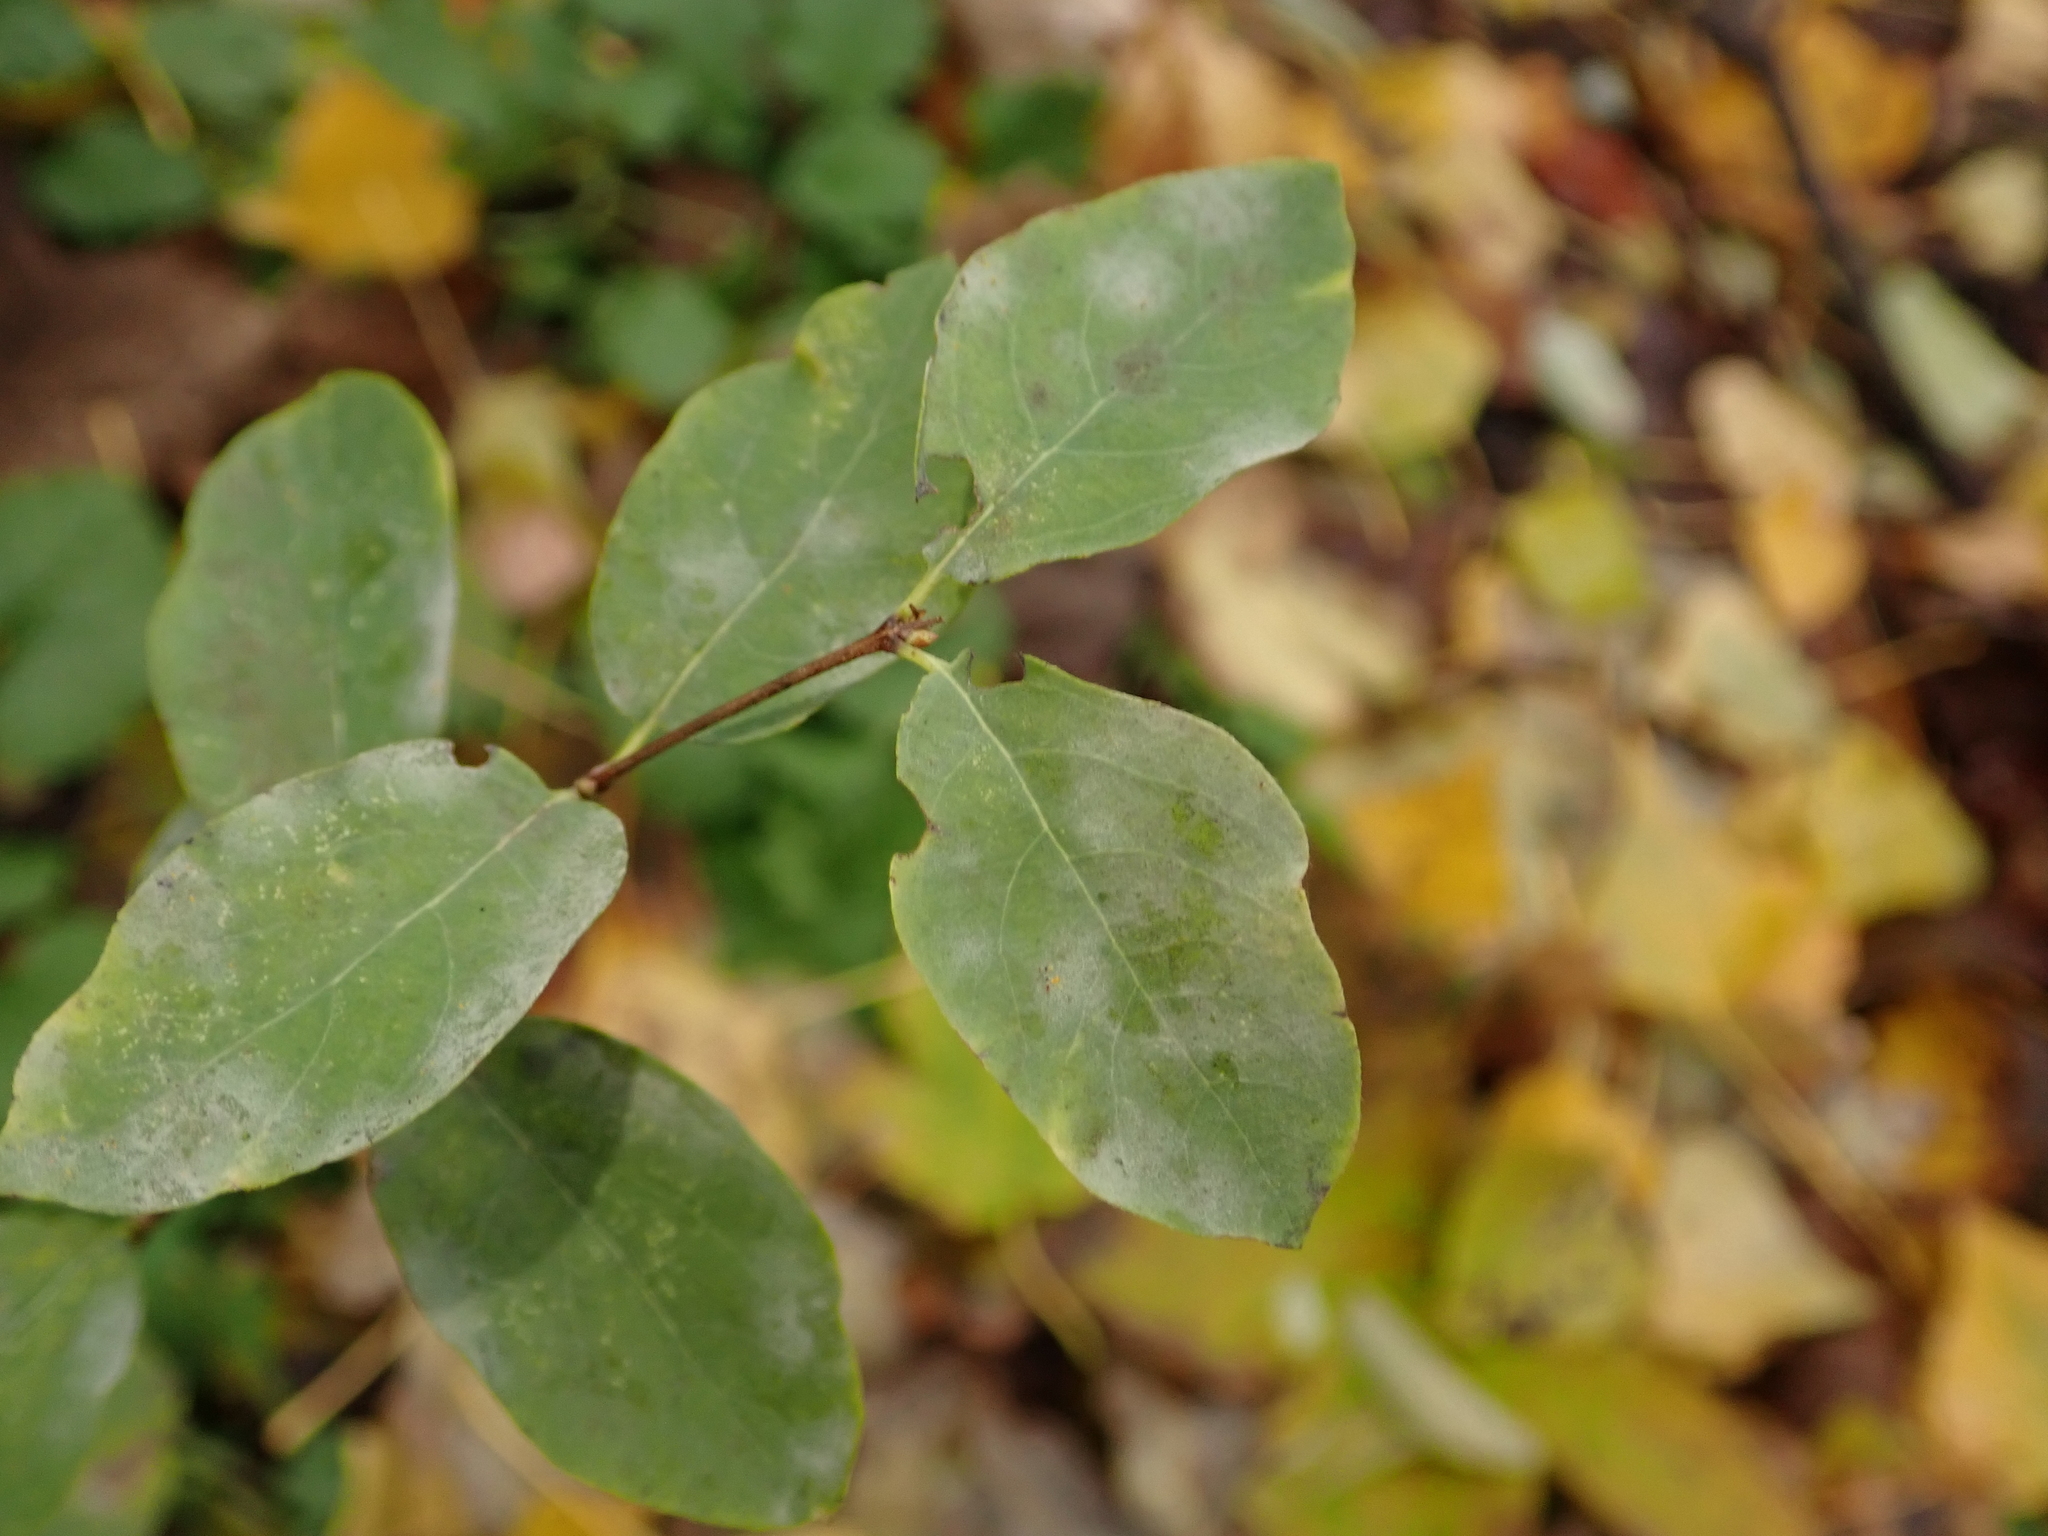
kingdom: Plantae
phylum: Tracheophyta
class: Magnoliopsida
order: Dipsacales
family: Caprifoliaceae
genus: Symphoricarpos
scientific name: Symphoricarpos albus
